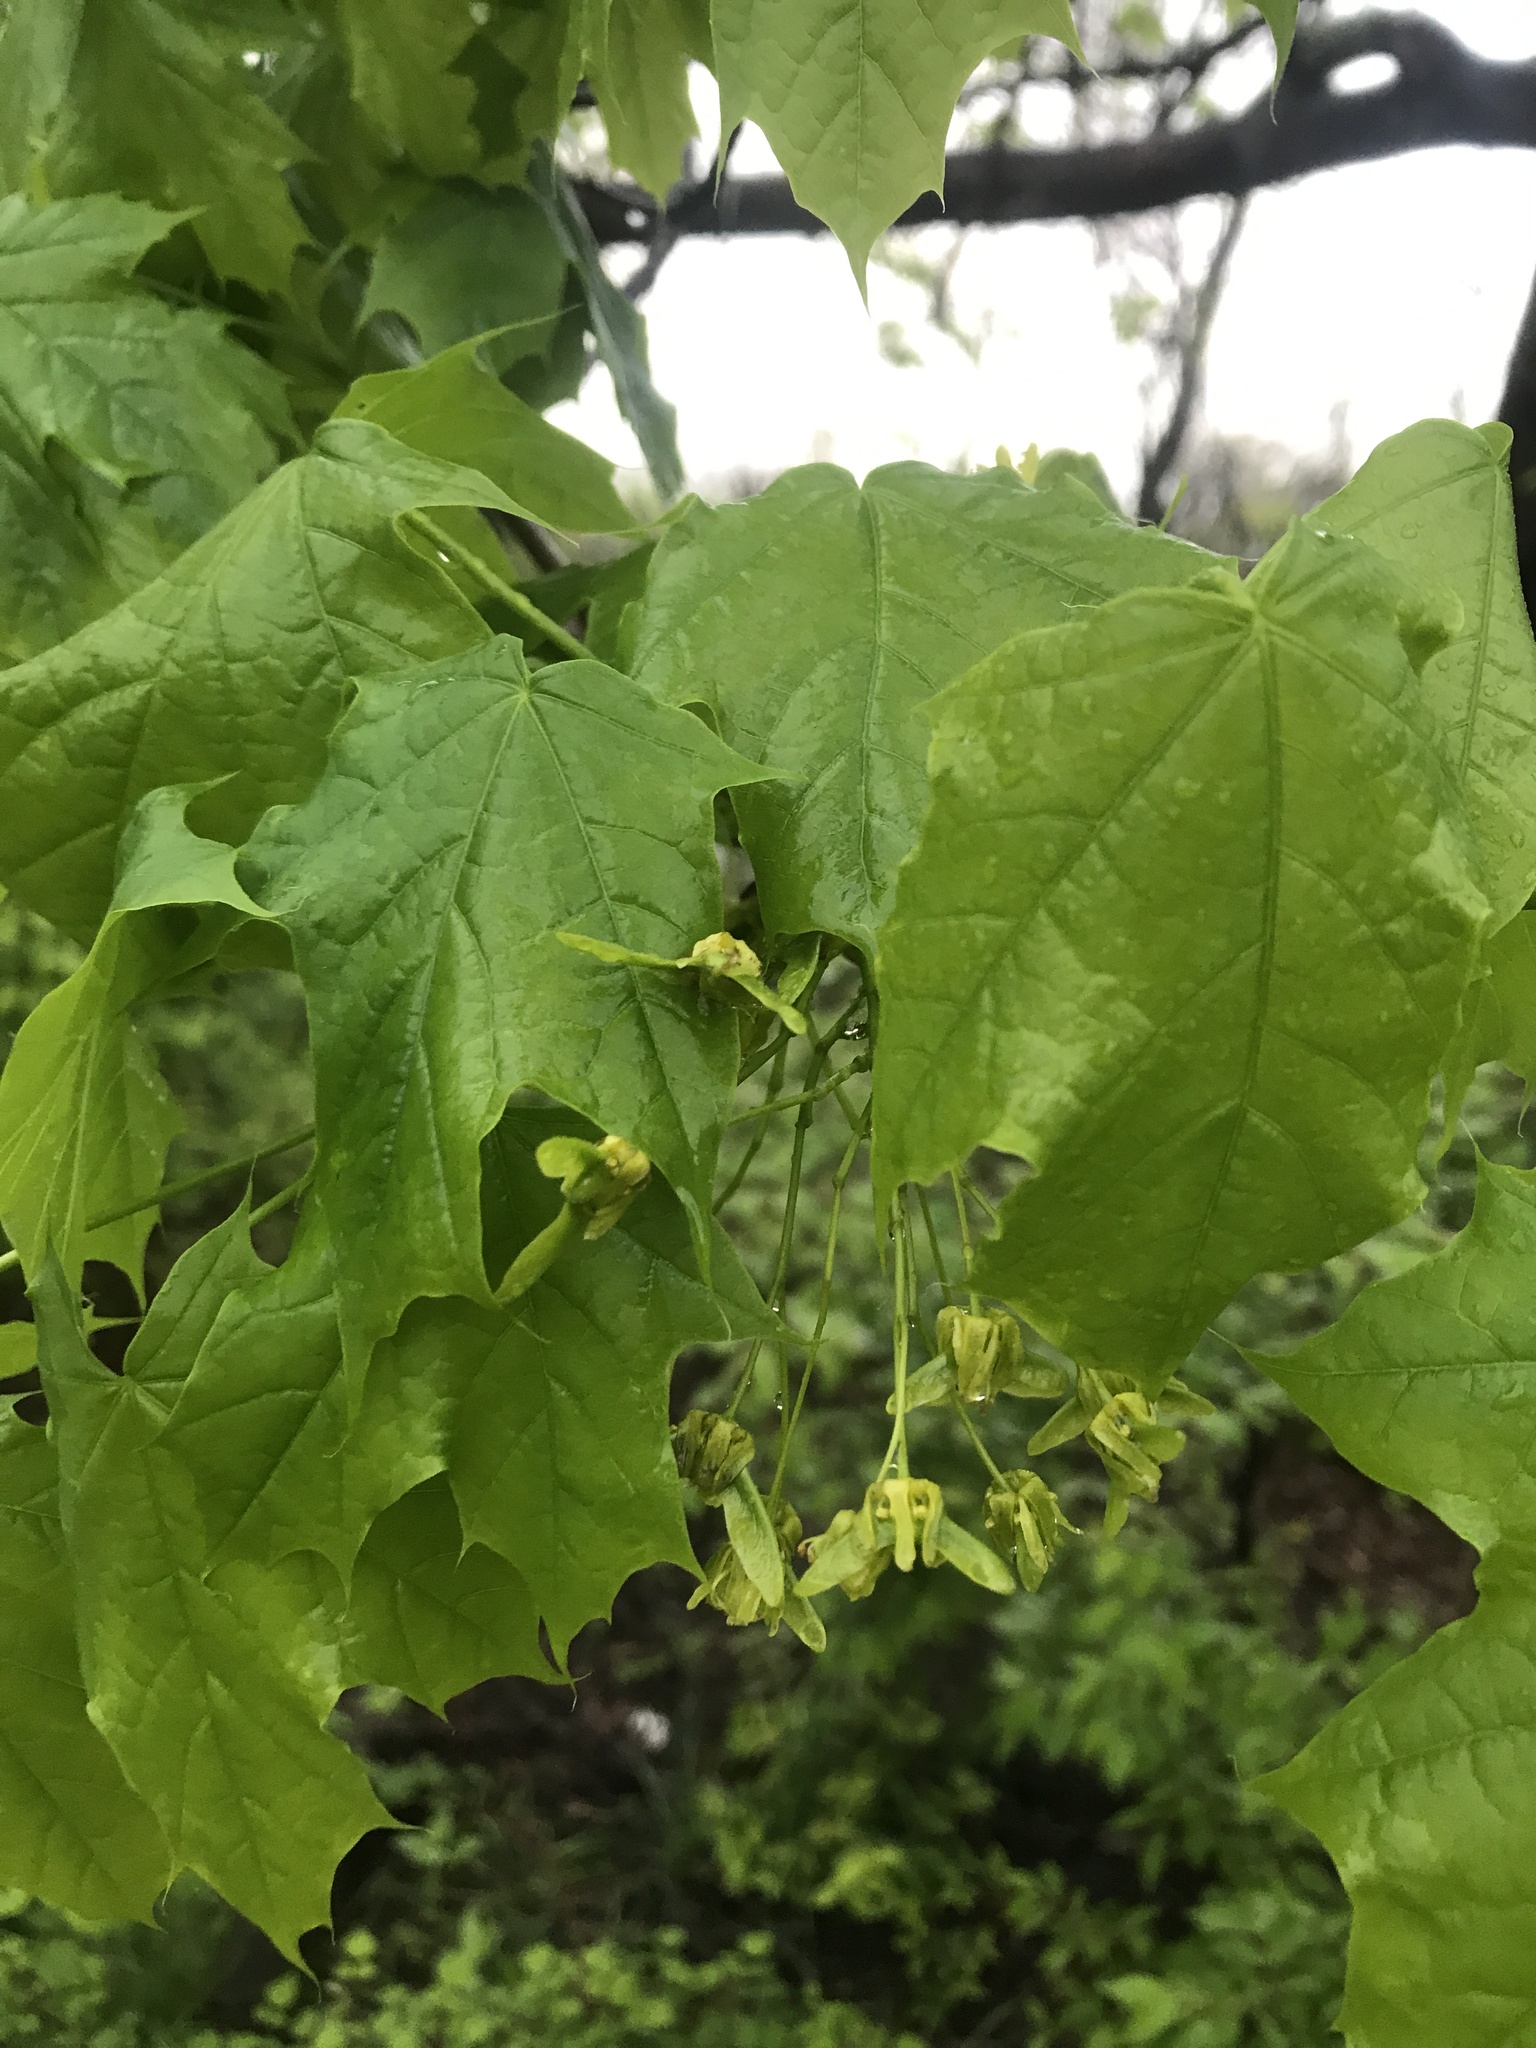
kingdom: Plantae
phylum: Tracheophyta
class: Magnoliopsida
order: Sapindales
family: Sapindaceae
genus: Acer
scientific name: Acer platanoides
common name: Norway maple
